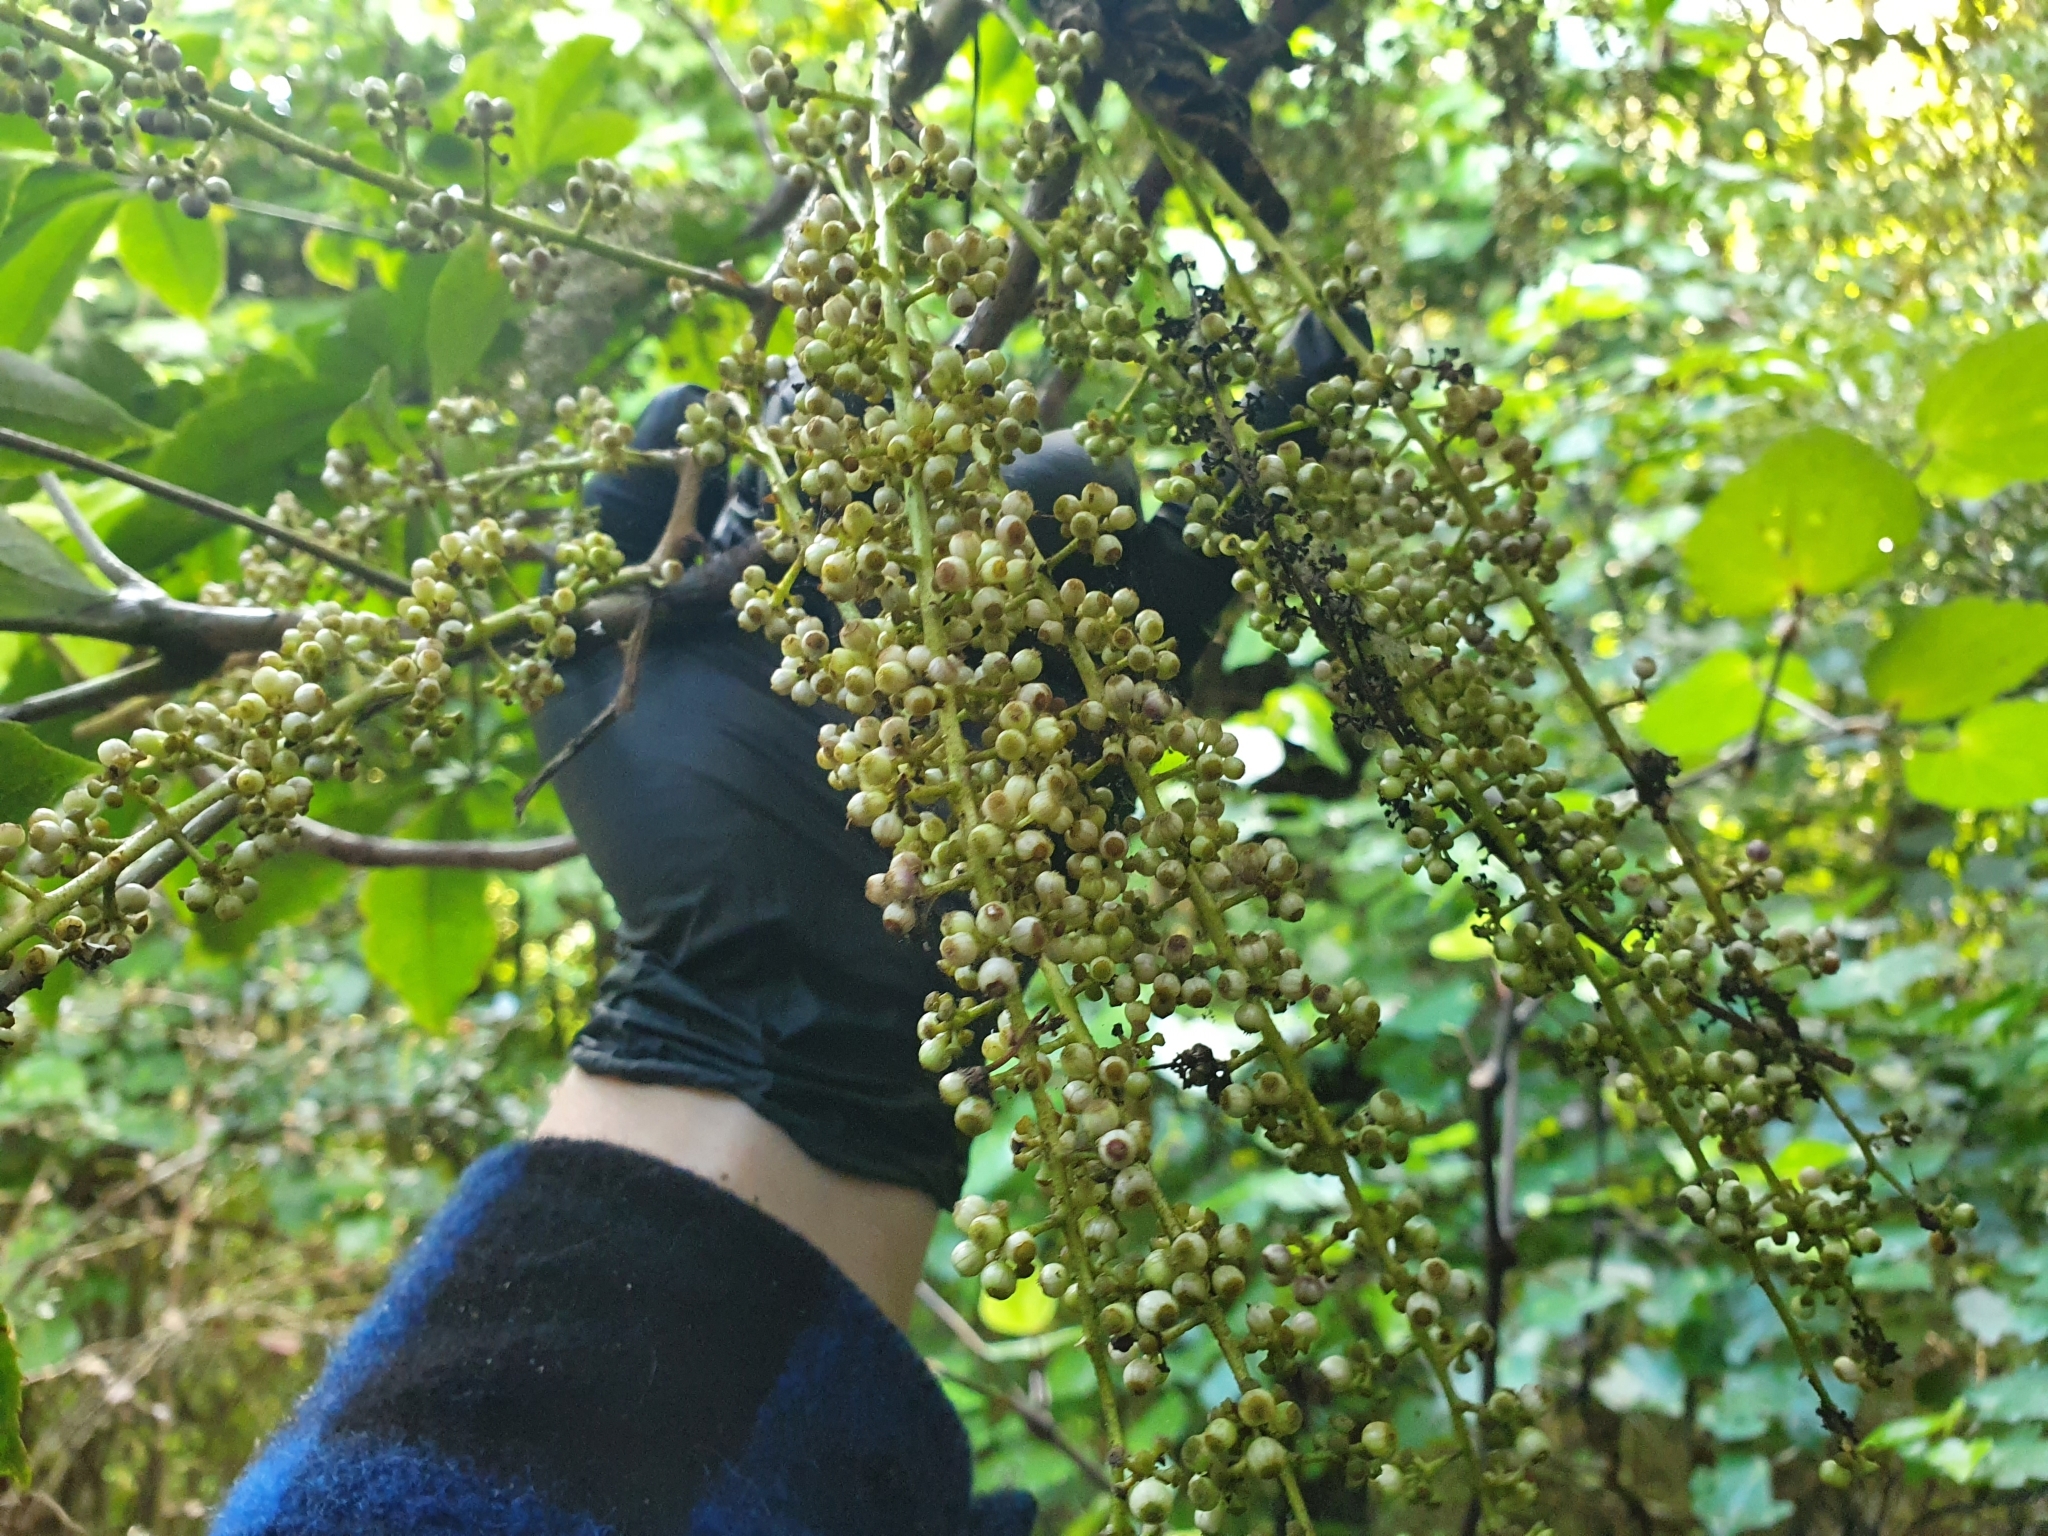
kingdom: Plantae
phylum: Tracheophyta
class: Magnoliopsida
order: Apiales
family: Araliaceae
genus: Schefflera
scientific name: Schefflera digitata
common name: Pate
